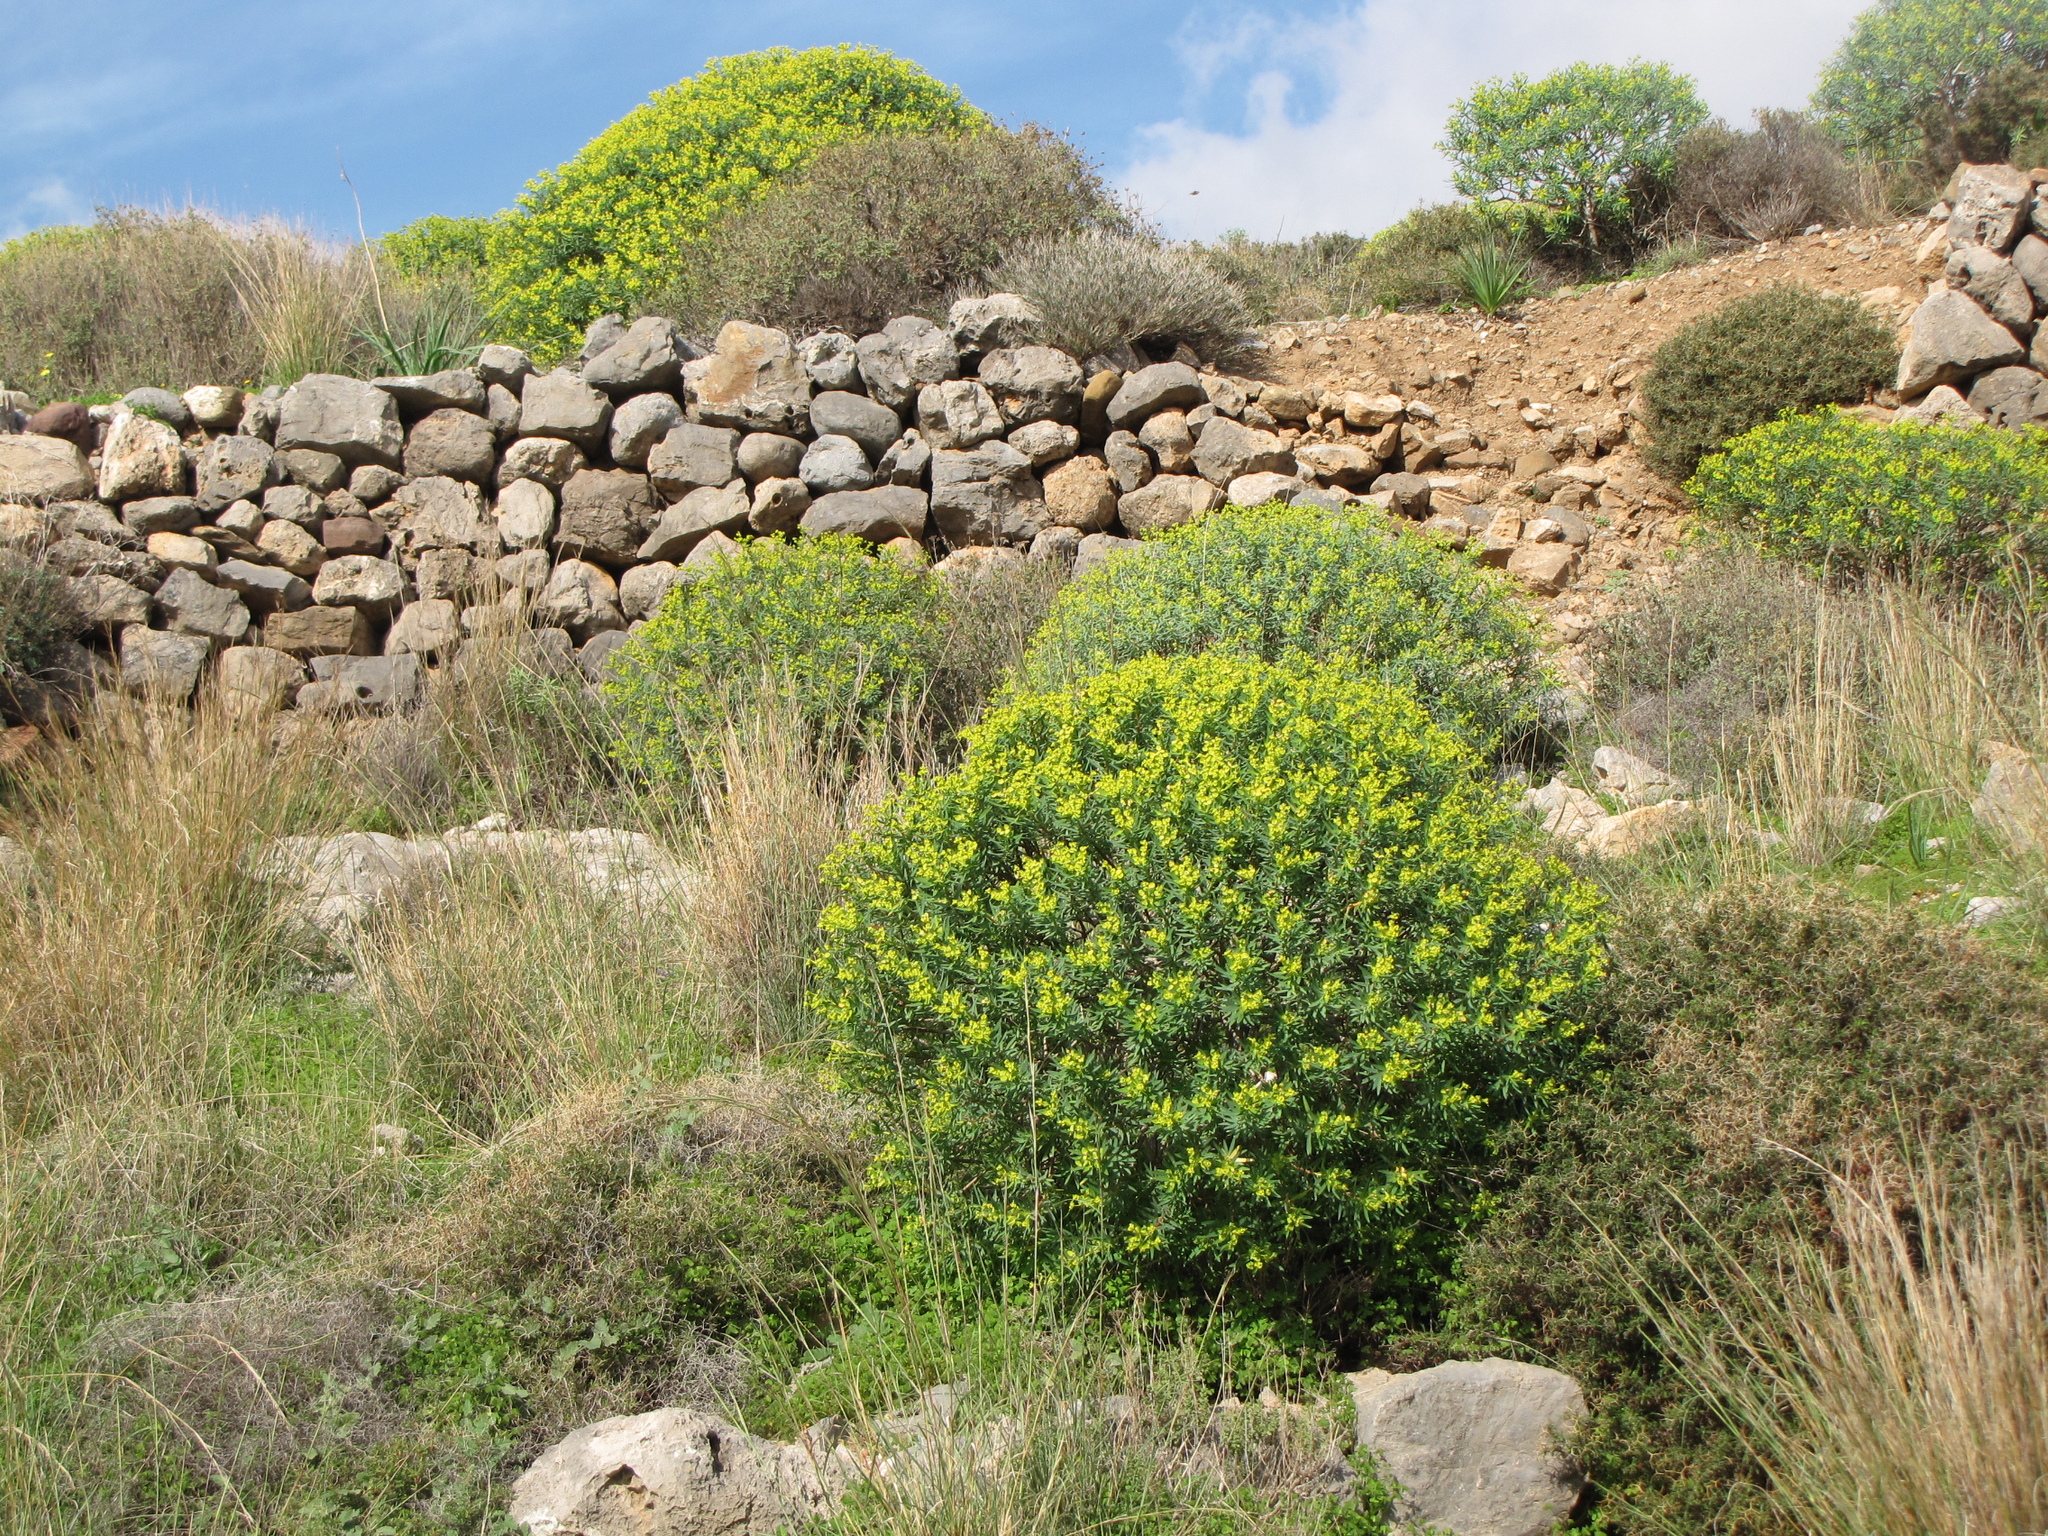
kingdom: Plantae
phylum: Tracheophyta
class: Magnoliopsida
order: Malpighiales
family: Euphorbiaceae
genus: Euphorbia
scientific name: Euphorbia dendroides
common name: Tree spurge
